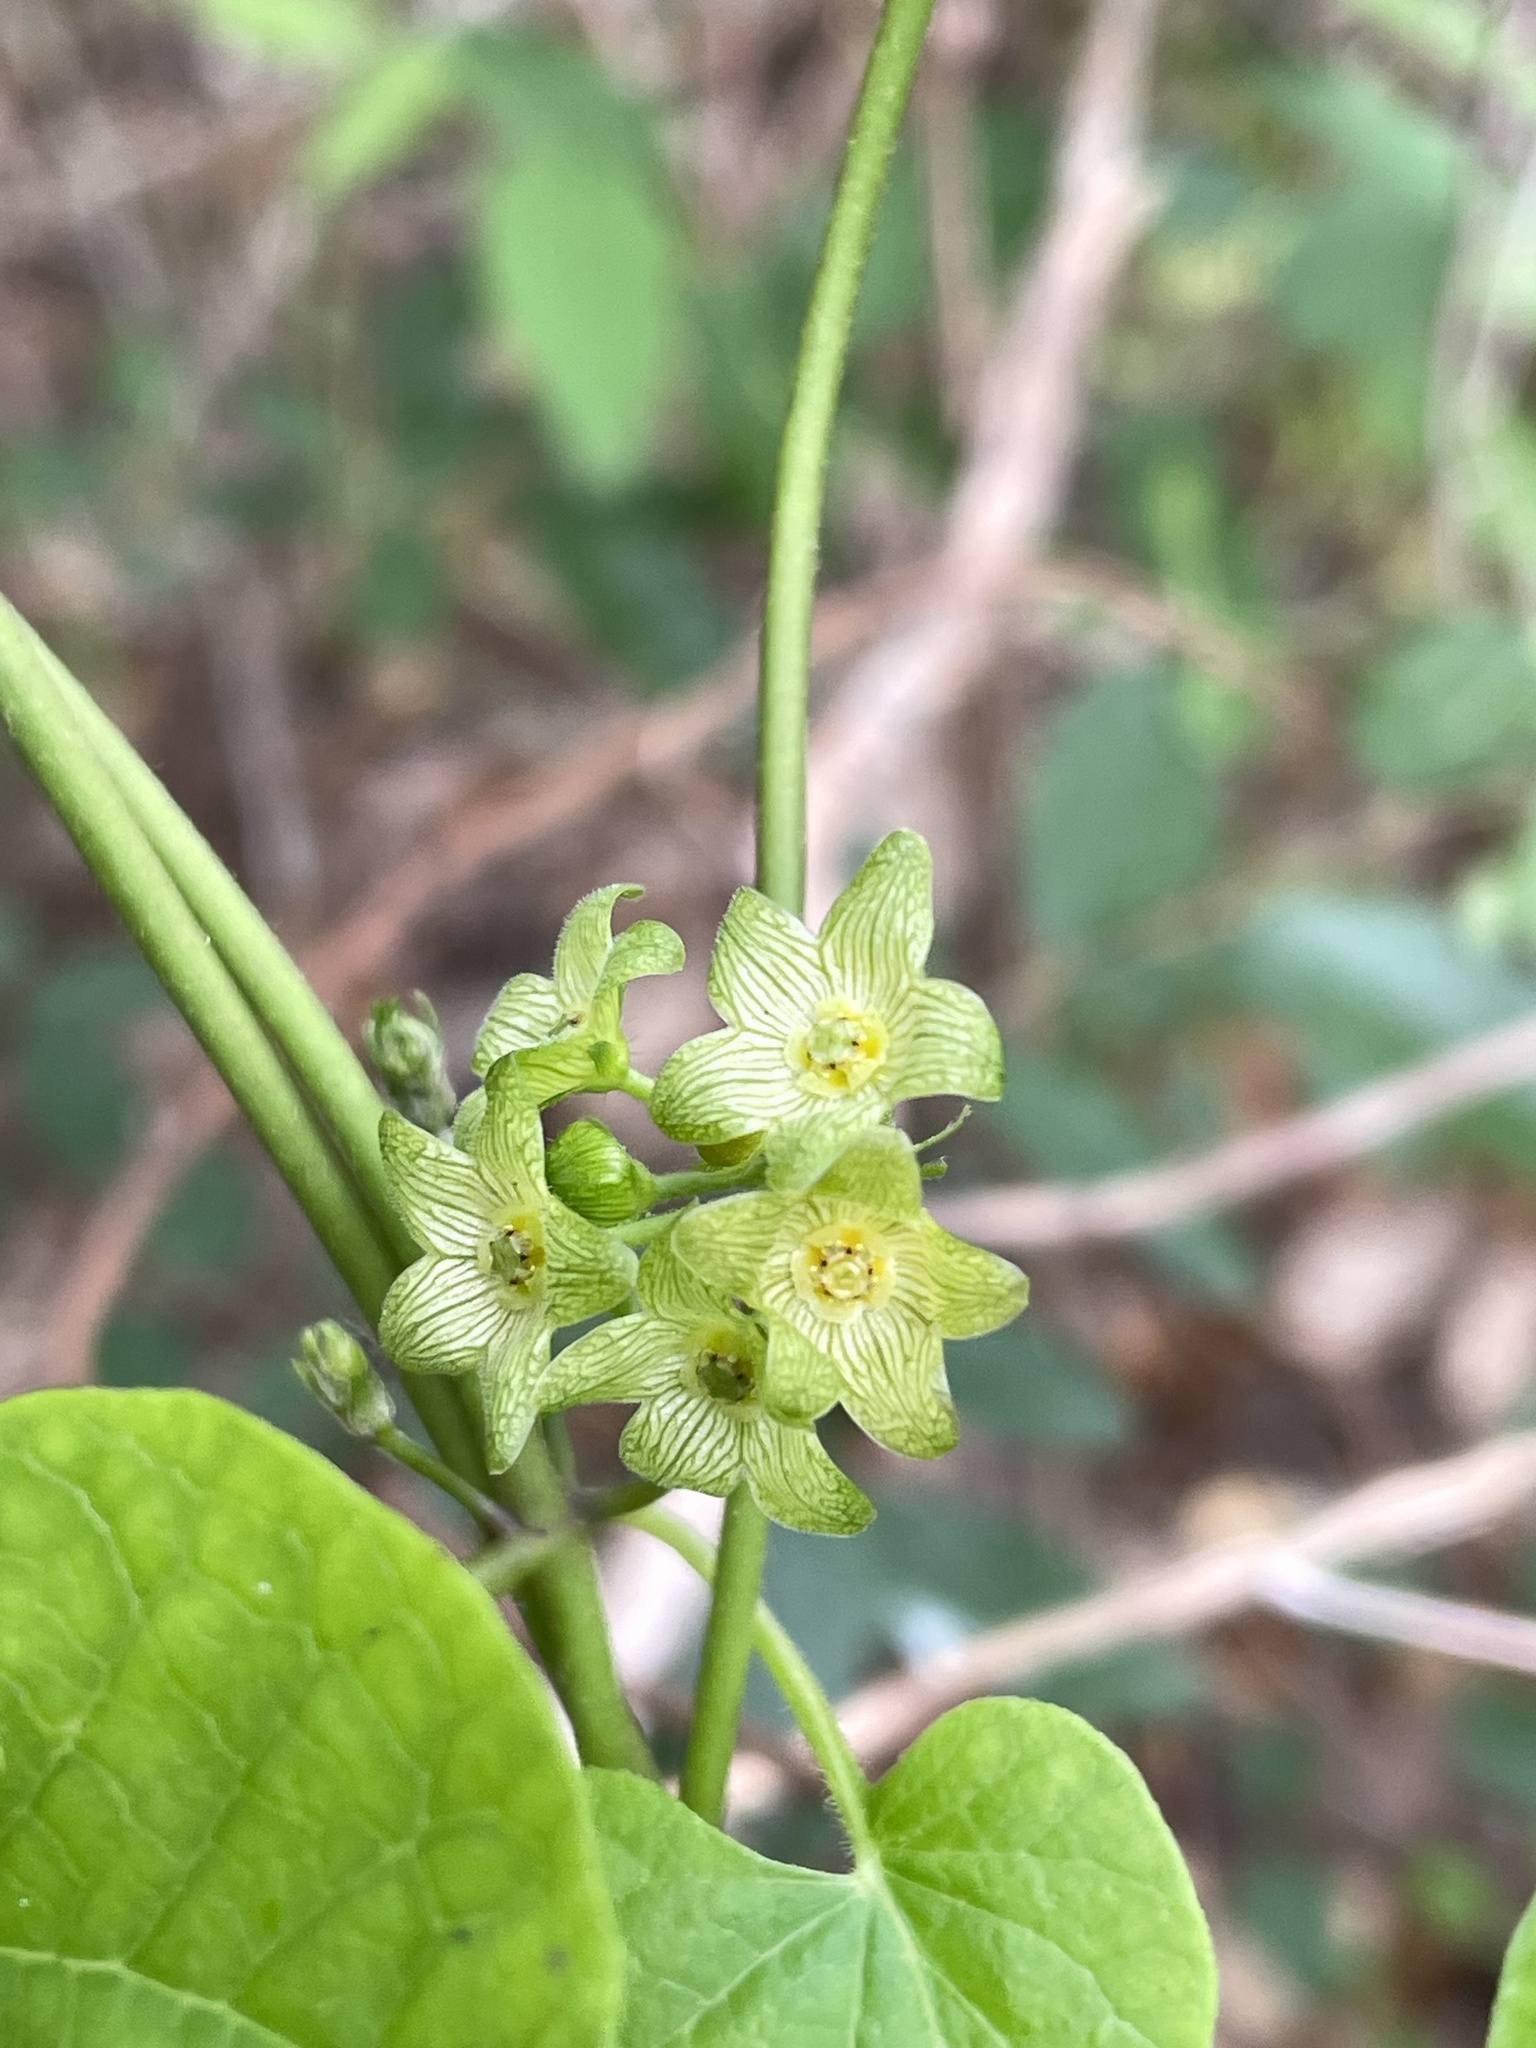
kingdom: Plantae
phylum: Tracheophyta
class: Magnoliopsida
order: Gentianales
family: Apocynaceae
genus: Matelea
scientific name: Matelea edwardsensis
